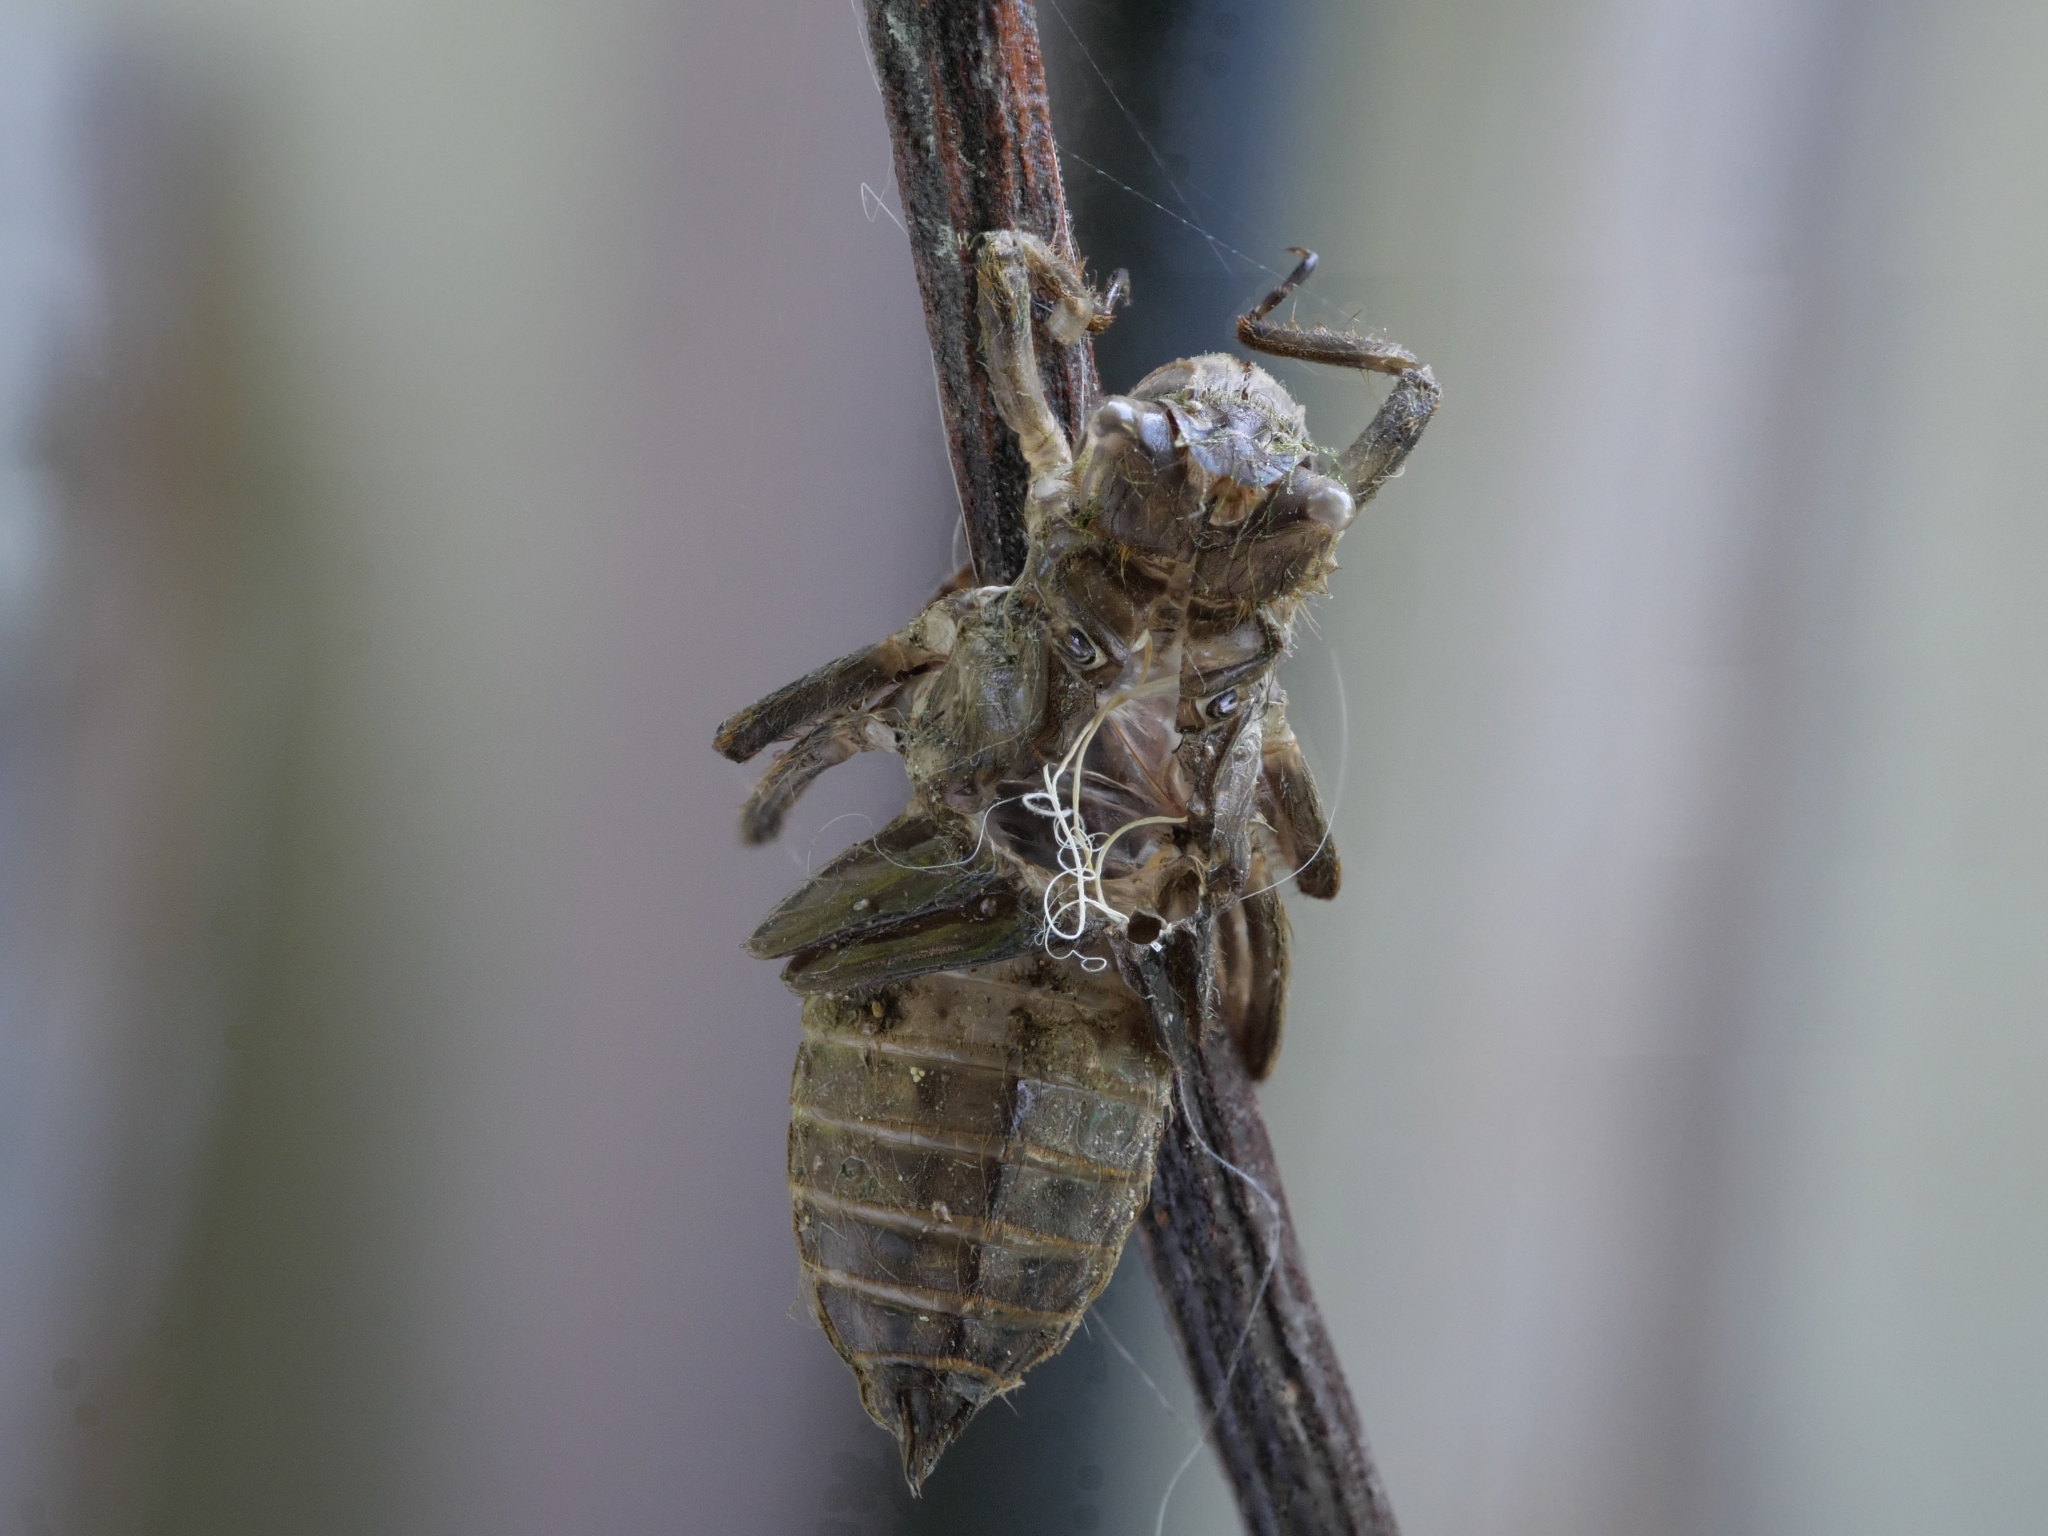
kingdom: Animalia
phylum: Arthropoda
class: Insecta
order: Odonata
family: Libellulidae
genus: Libellula
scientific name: Libellula depressa
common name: Broad-bodied chaser
